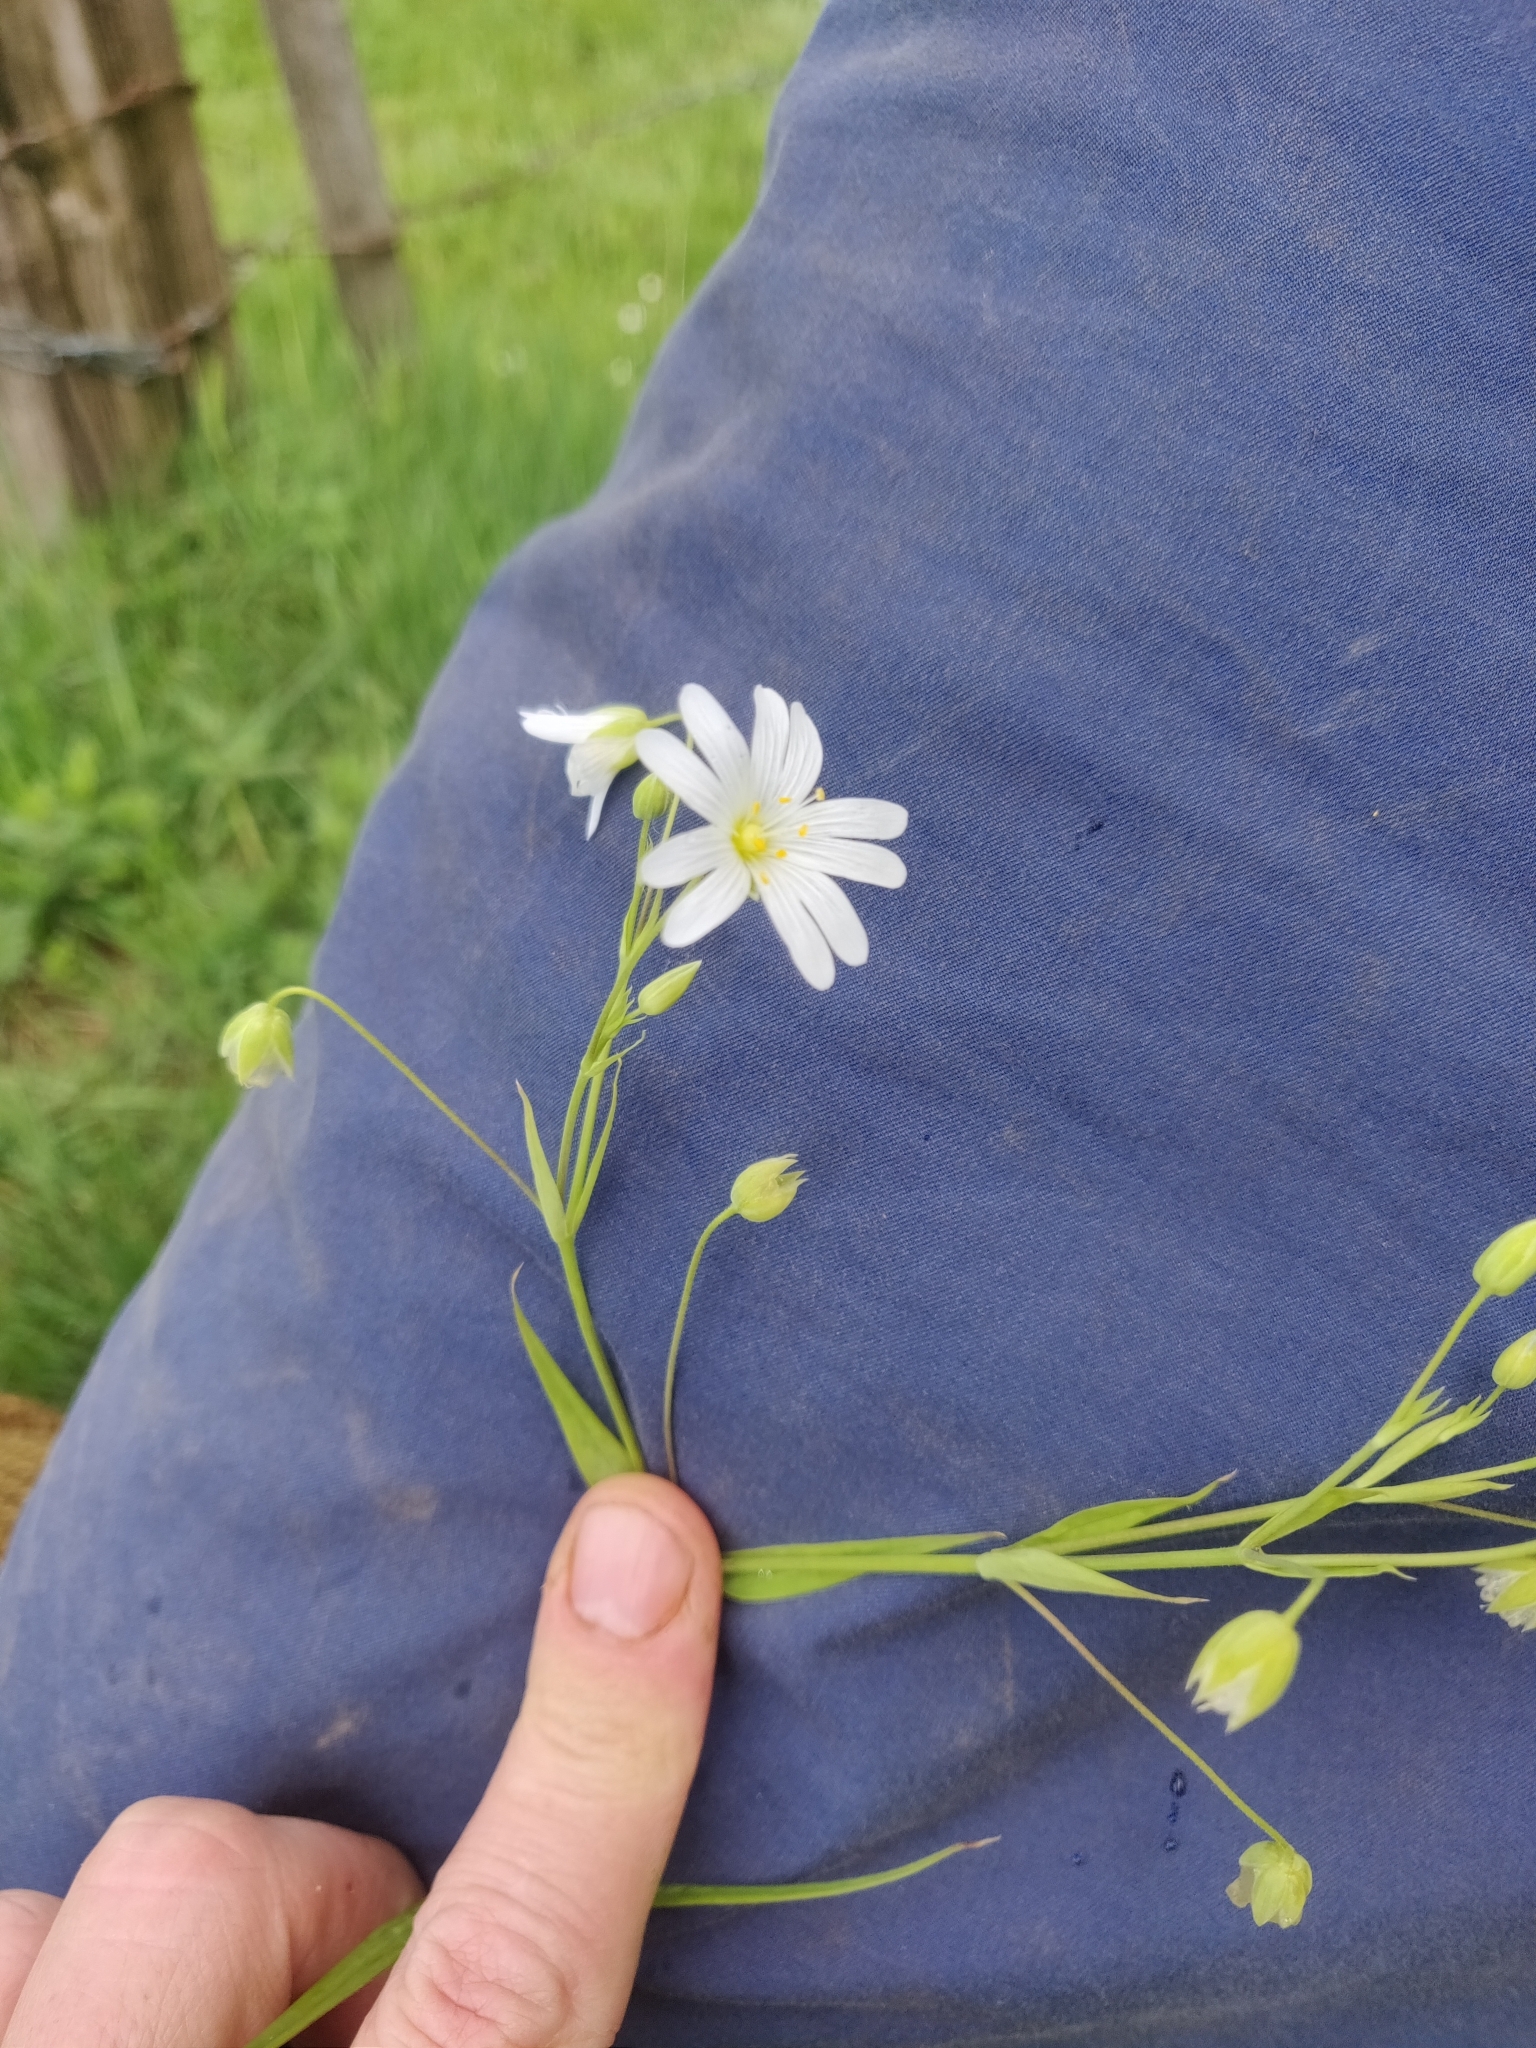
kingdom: Plantae
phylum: Tracheophyta
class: Magnoliopsida
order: Caryophyllales
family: Caryophyllaceae
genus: Rabelera
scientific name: Rabelera holostea
